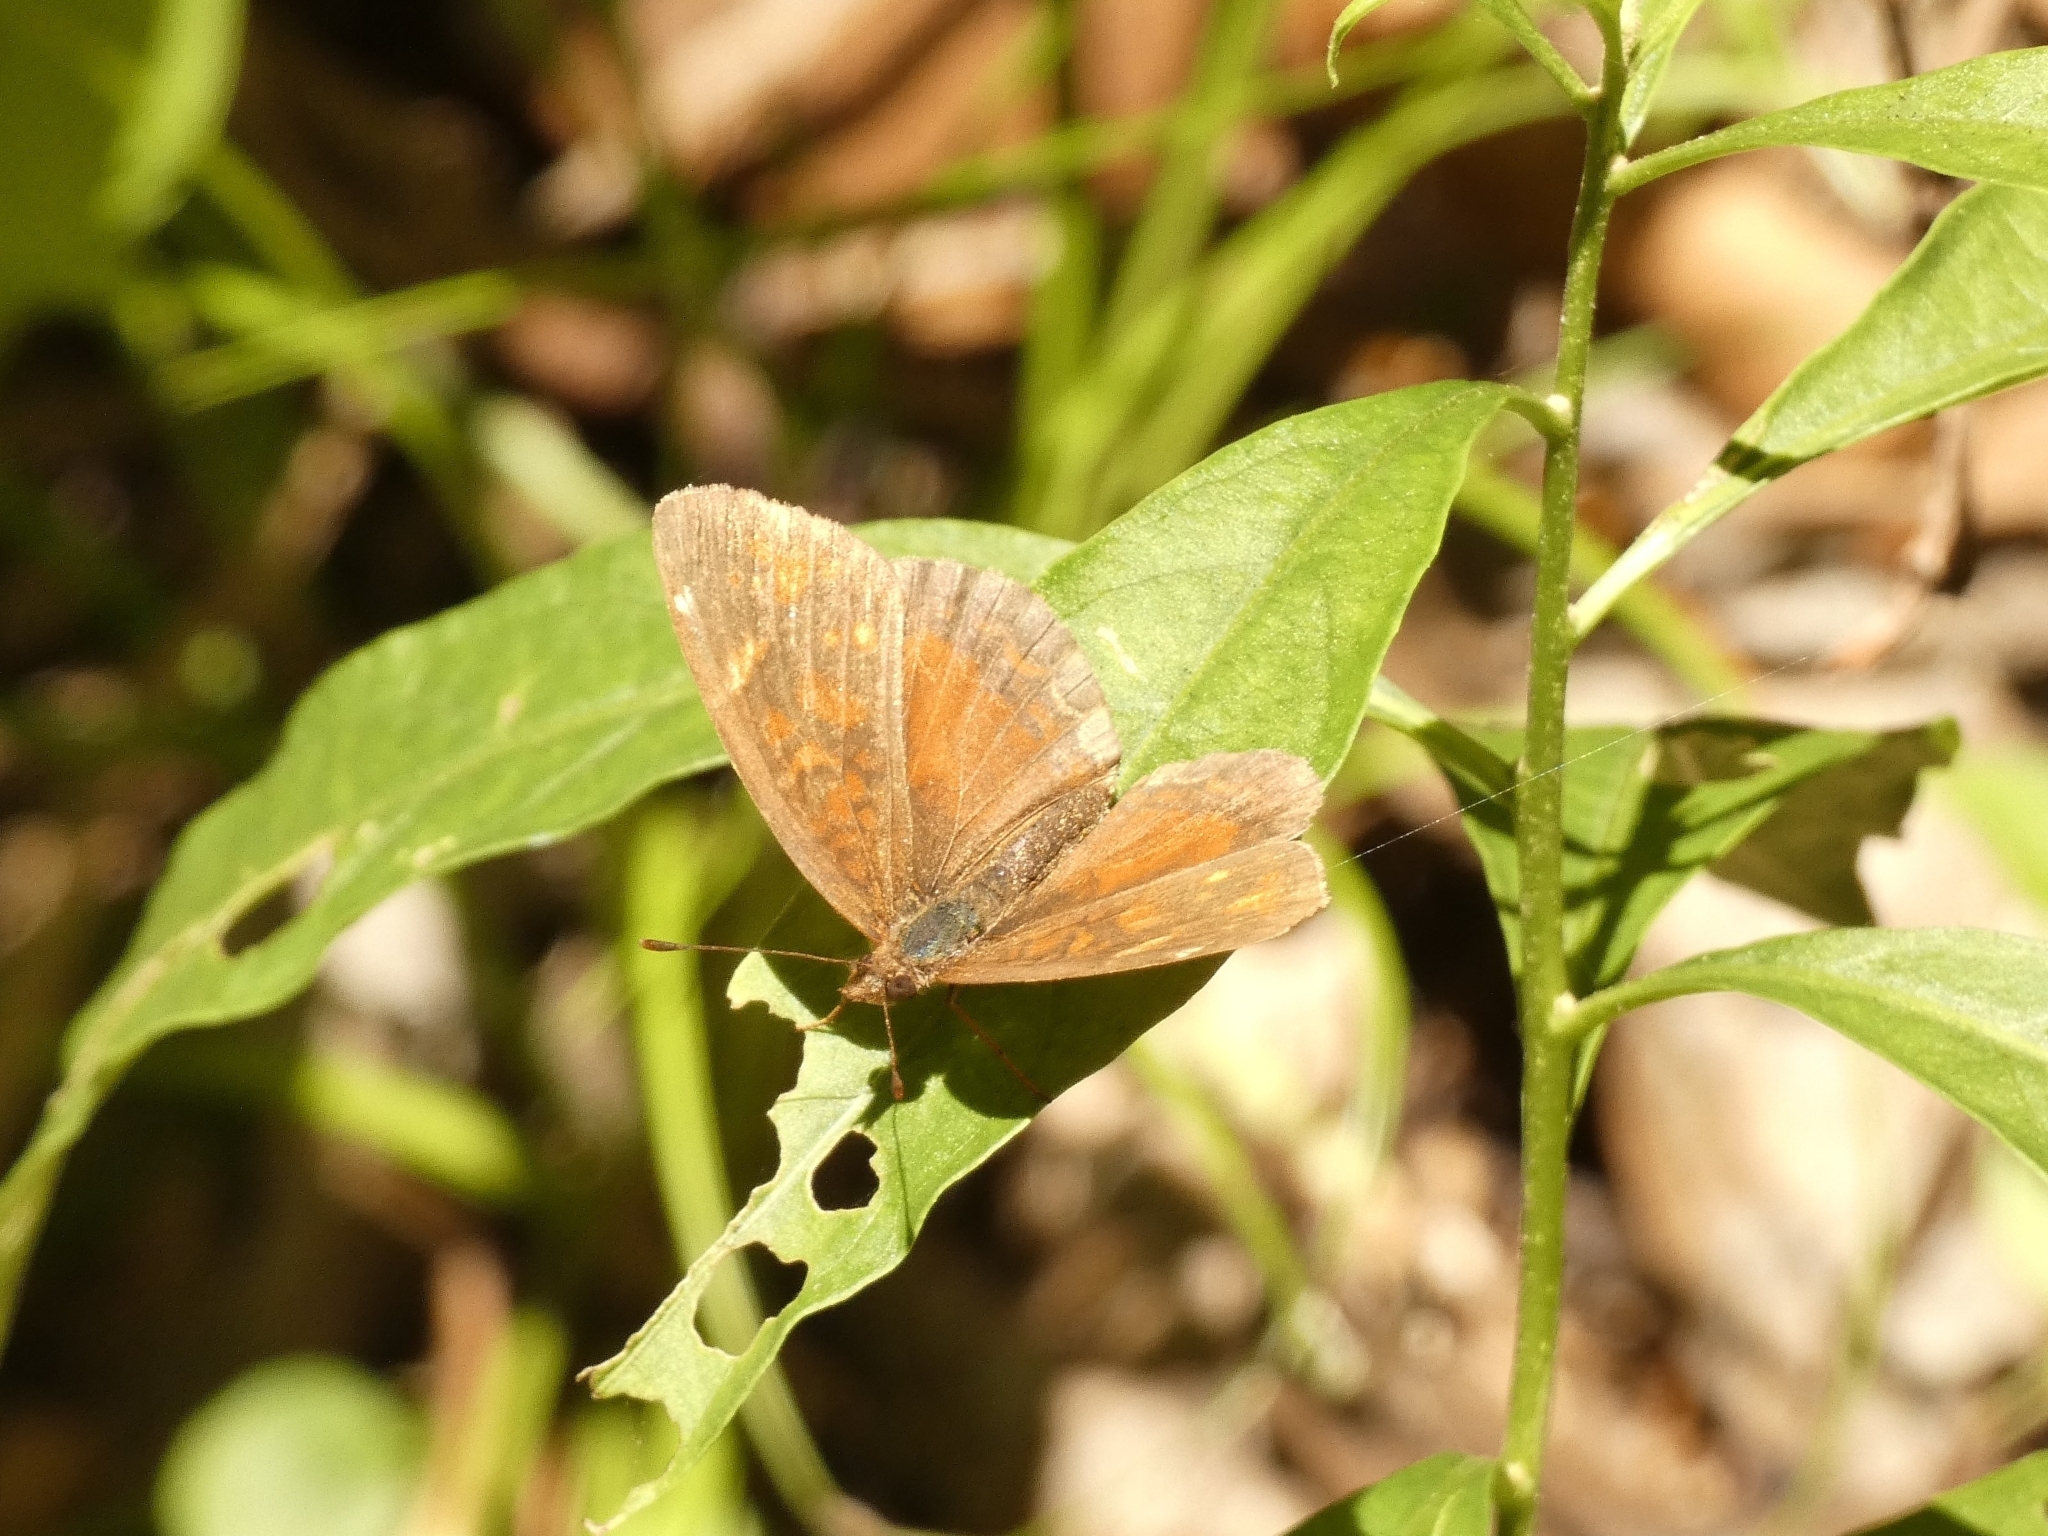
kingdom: Animalia
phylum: Arthropoda
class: Insecta
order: Lepidoptera
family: Nymphalidae
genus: Ortilia
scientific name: Ortilia velica
